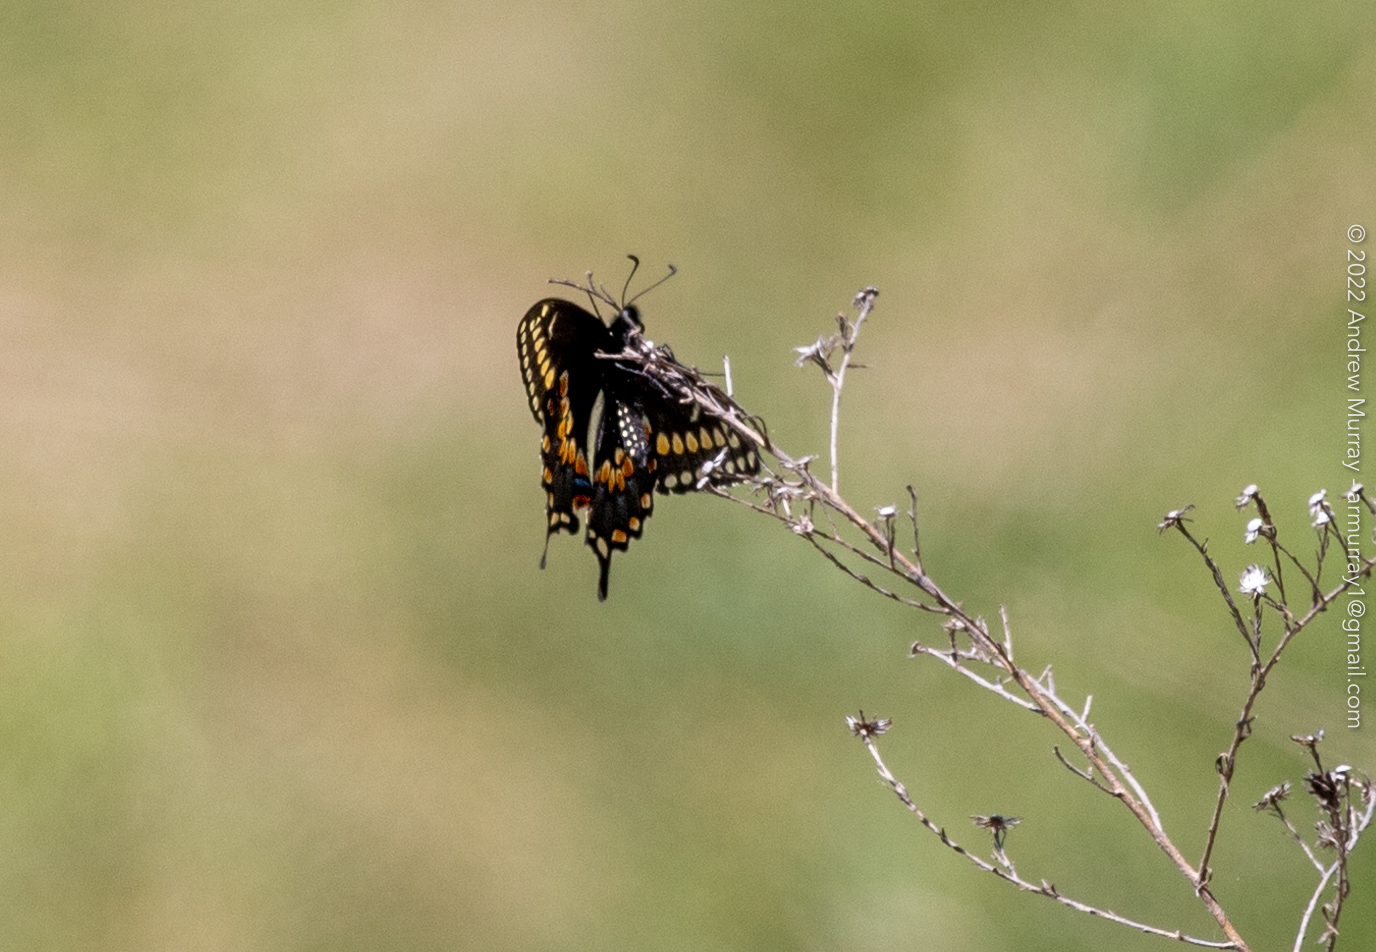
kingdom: Animalia
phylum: Arthropoda
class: Insecta
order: Lepidoptera
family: Papilionidae
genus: Papilio
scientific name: Papilio polyxenes
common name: Black swallowtail
